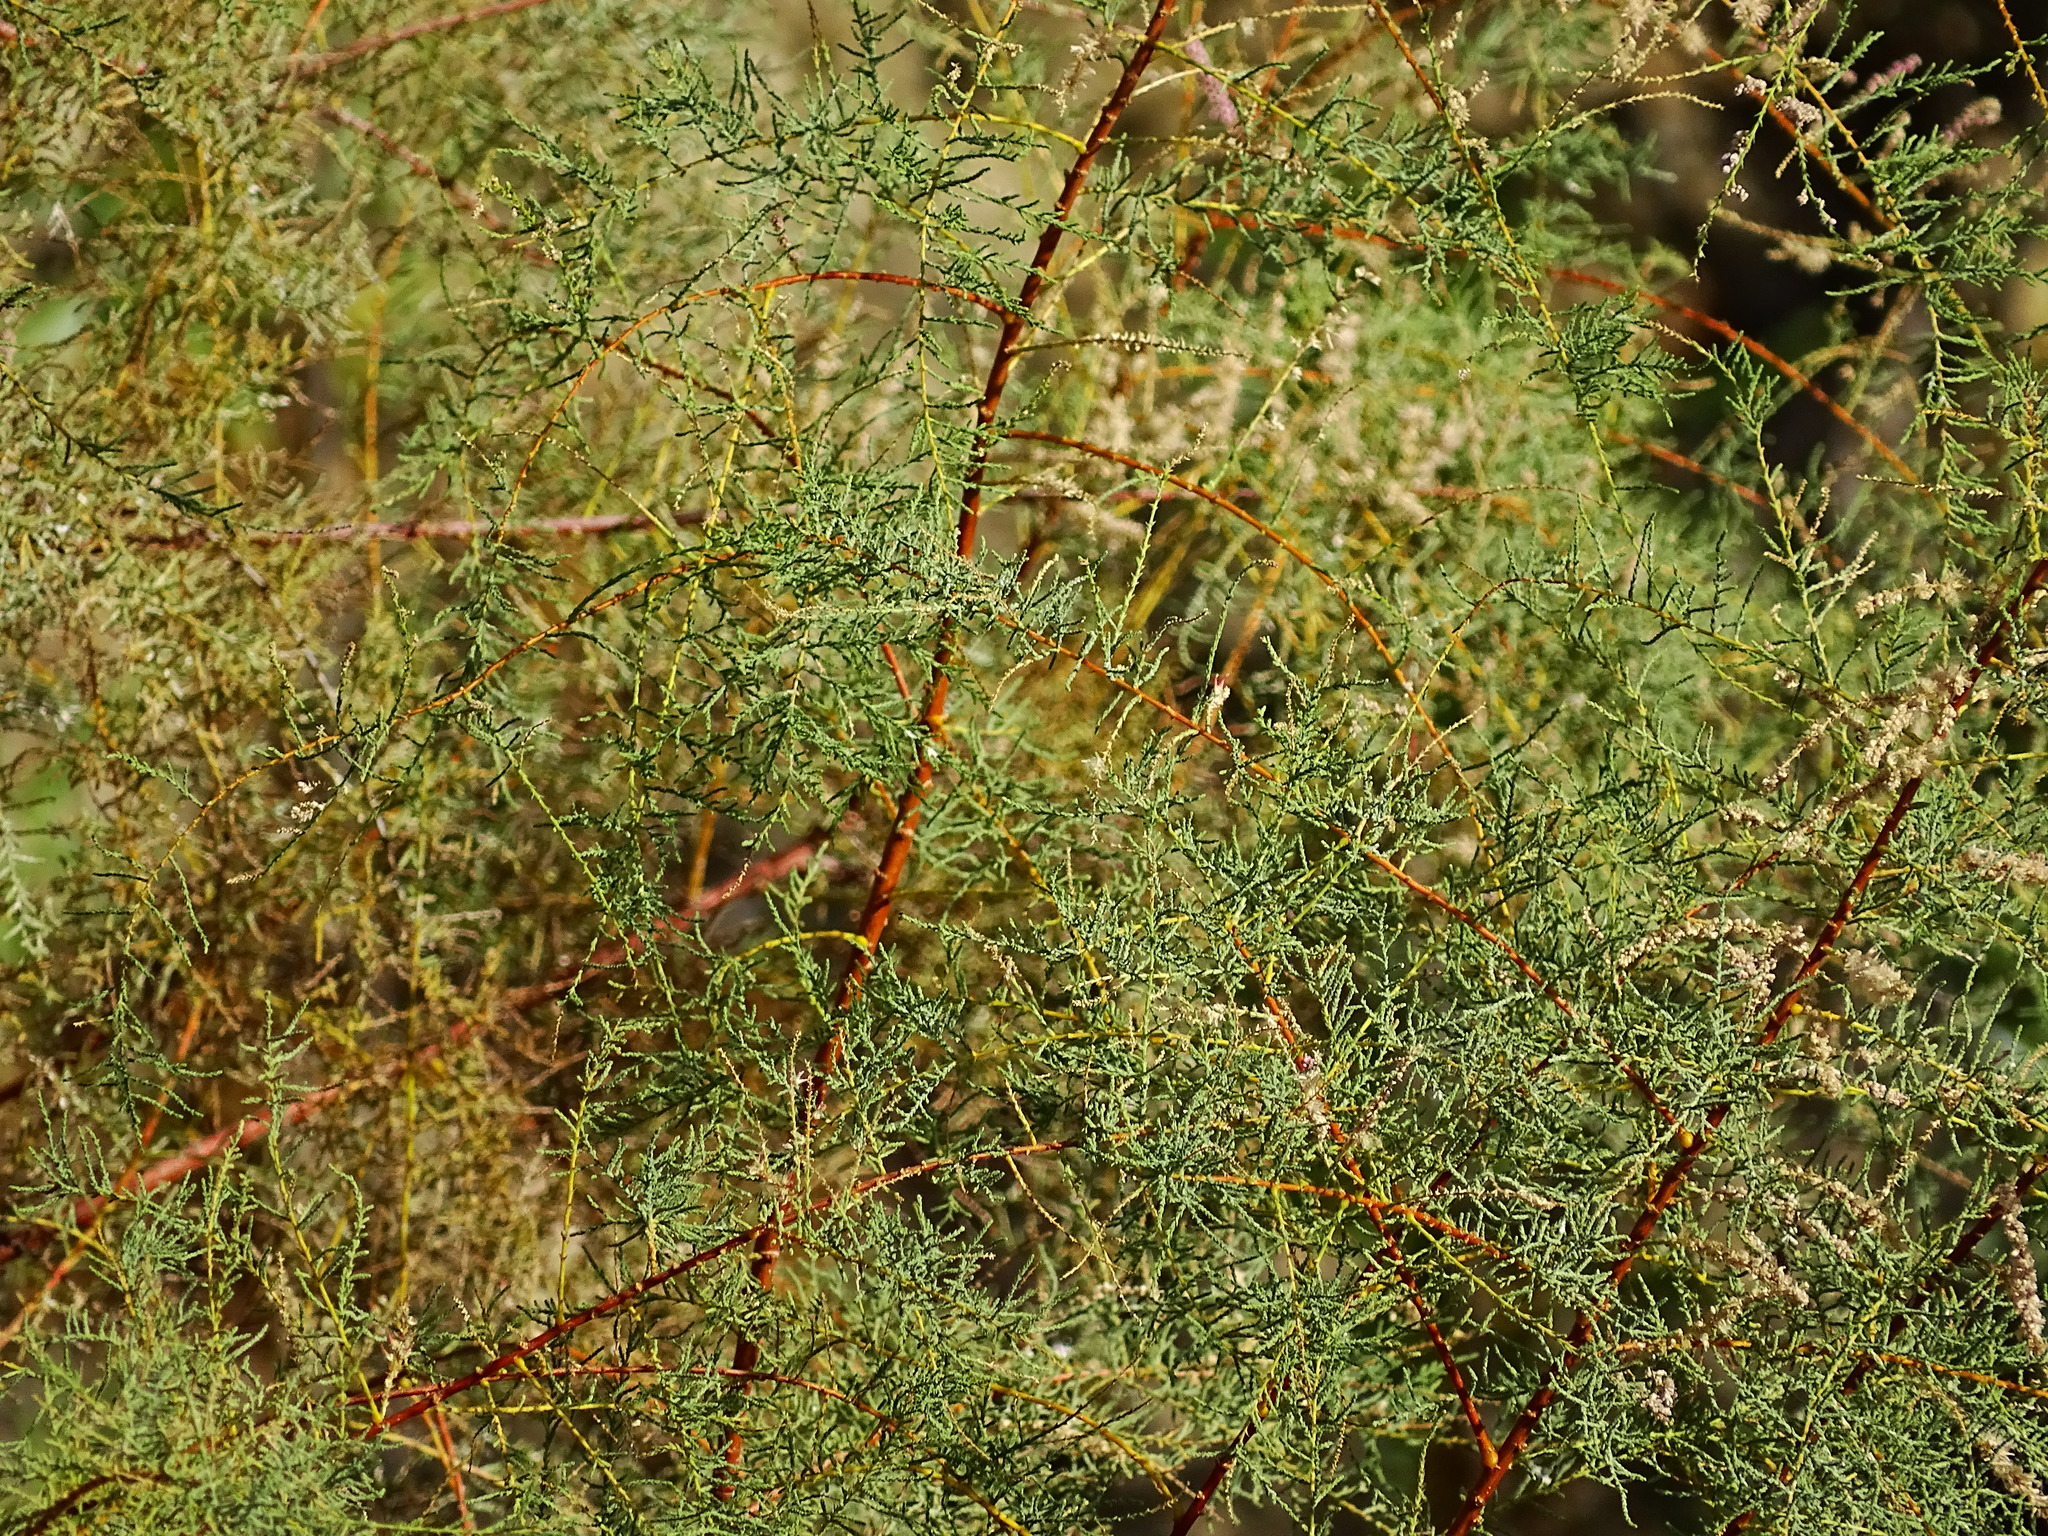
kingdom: Plantae
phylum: Tracheophyta
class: Magnoliopsida
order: Caryophyllales
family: Tamaricaceae
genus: Tamarix
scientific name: Tamarix ramosissima
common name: Pink tamarisk
